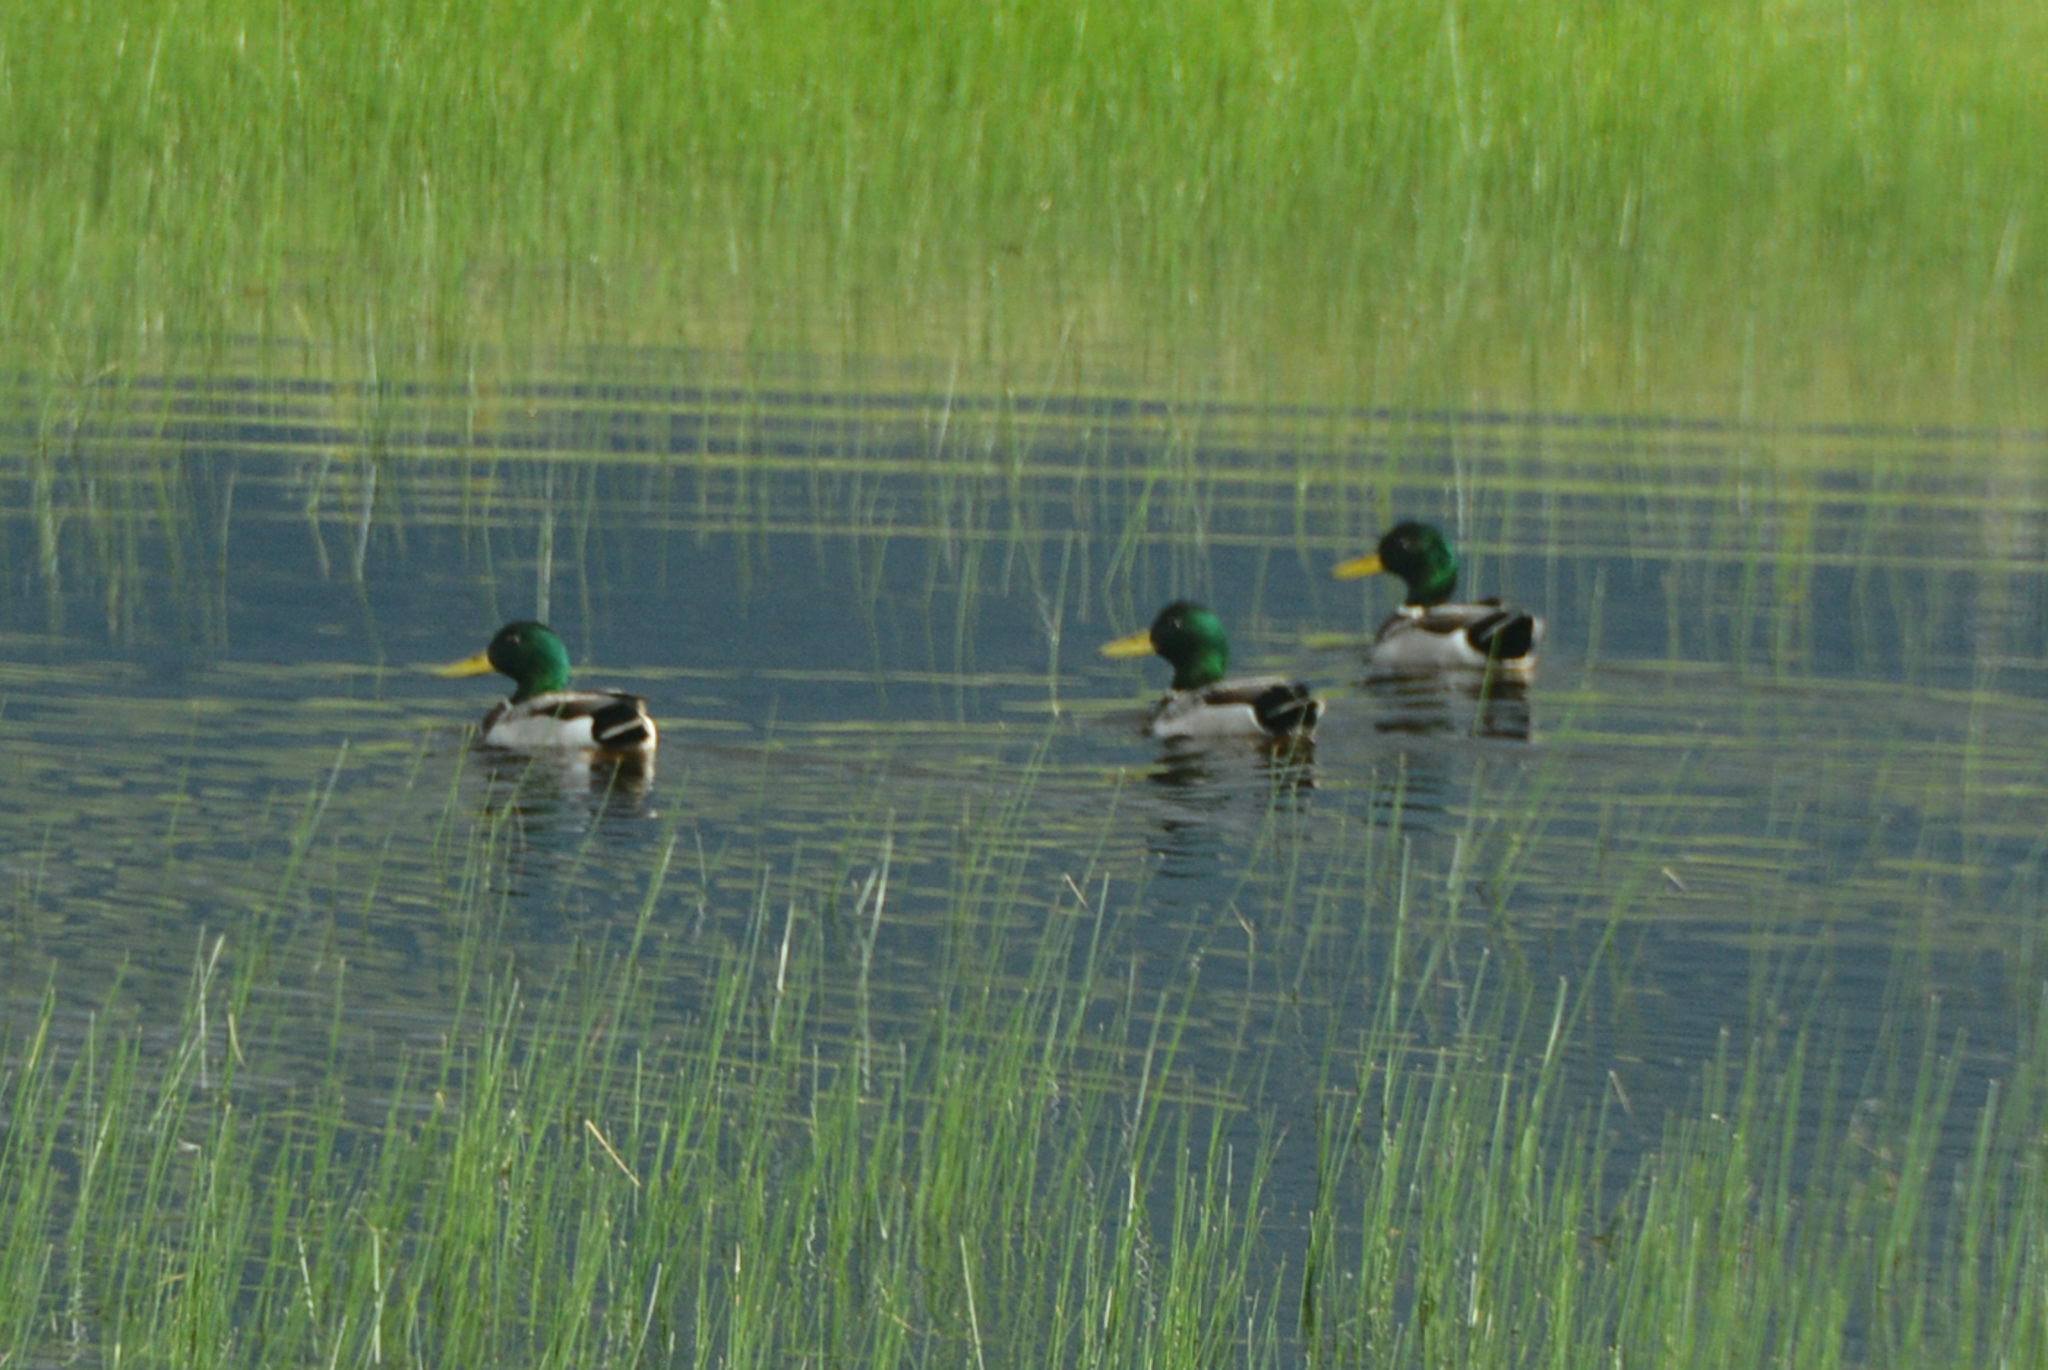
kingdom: Animalia
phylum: Chordata
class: Aves
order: Anseriformes
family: Anatidae
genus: Anas
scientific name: Anas platyrhynchos
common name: Mallard
